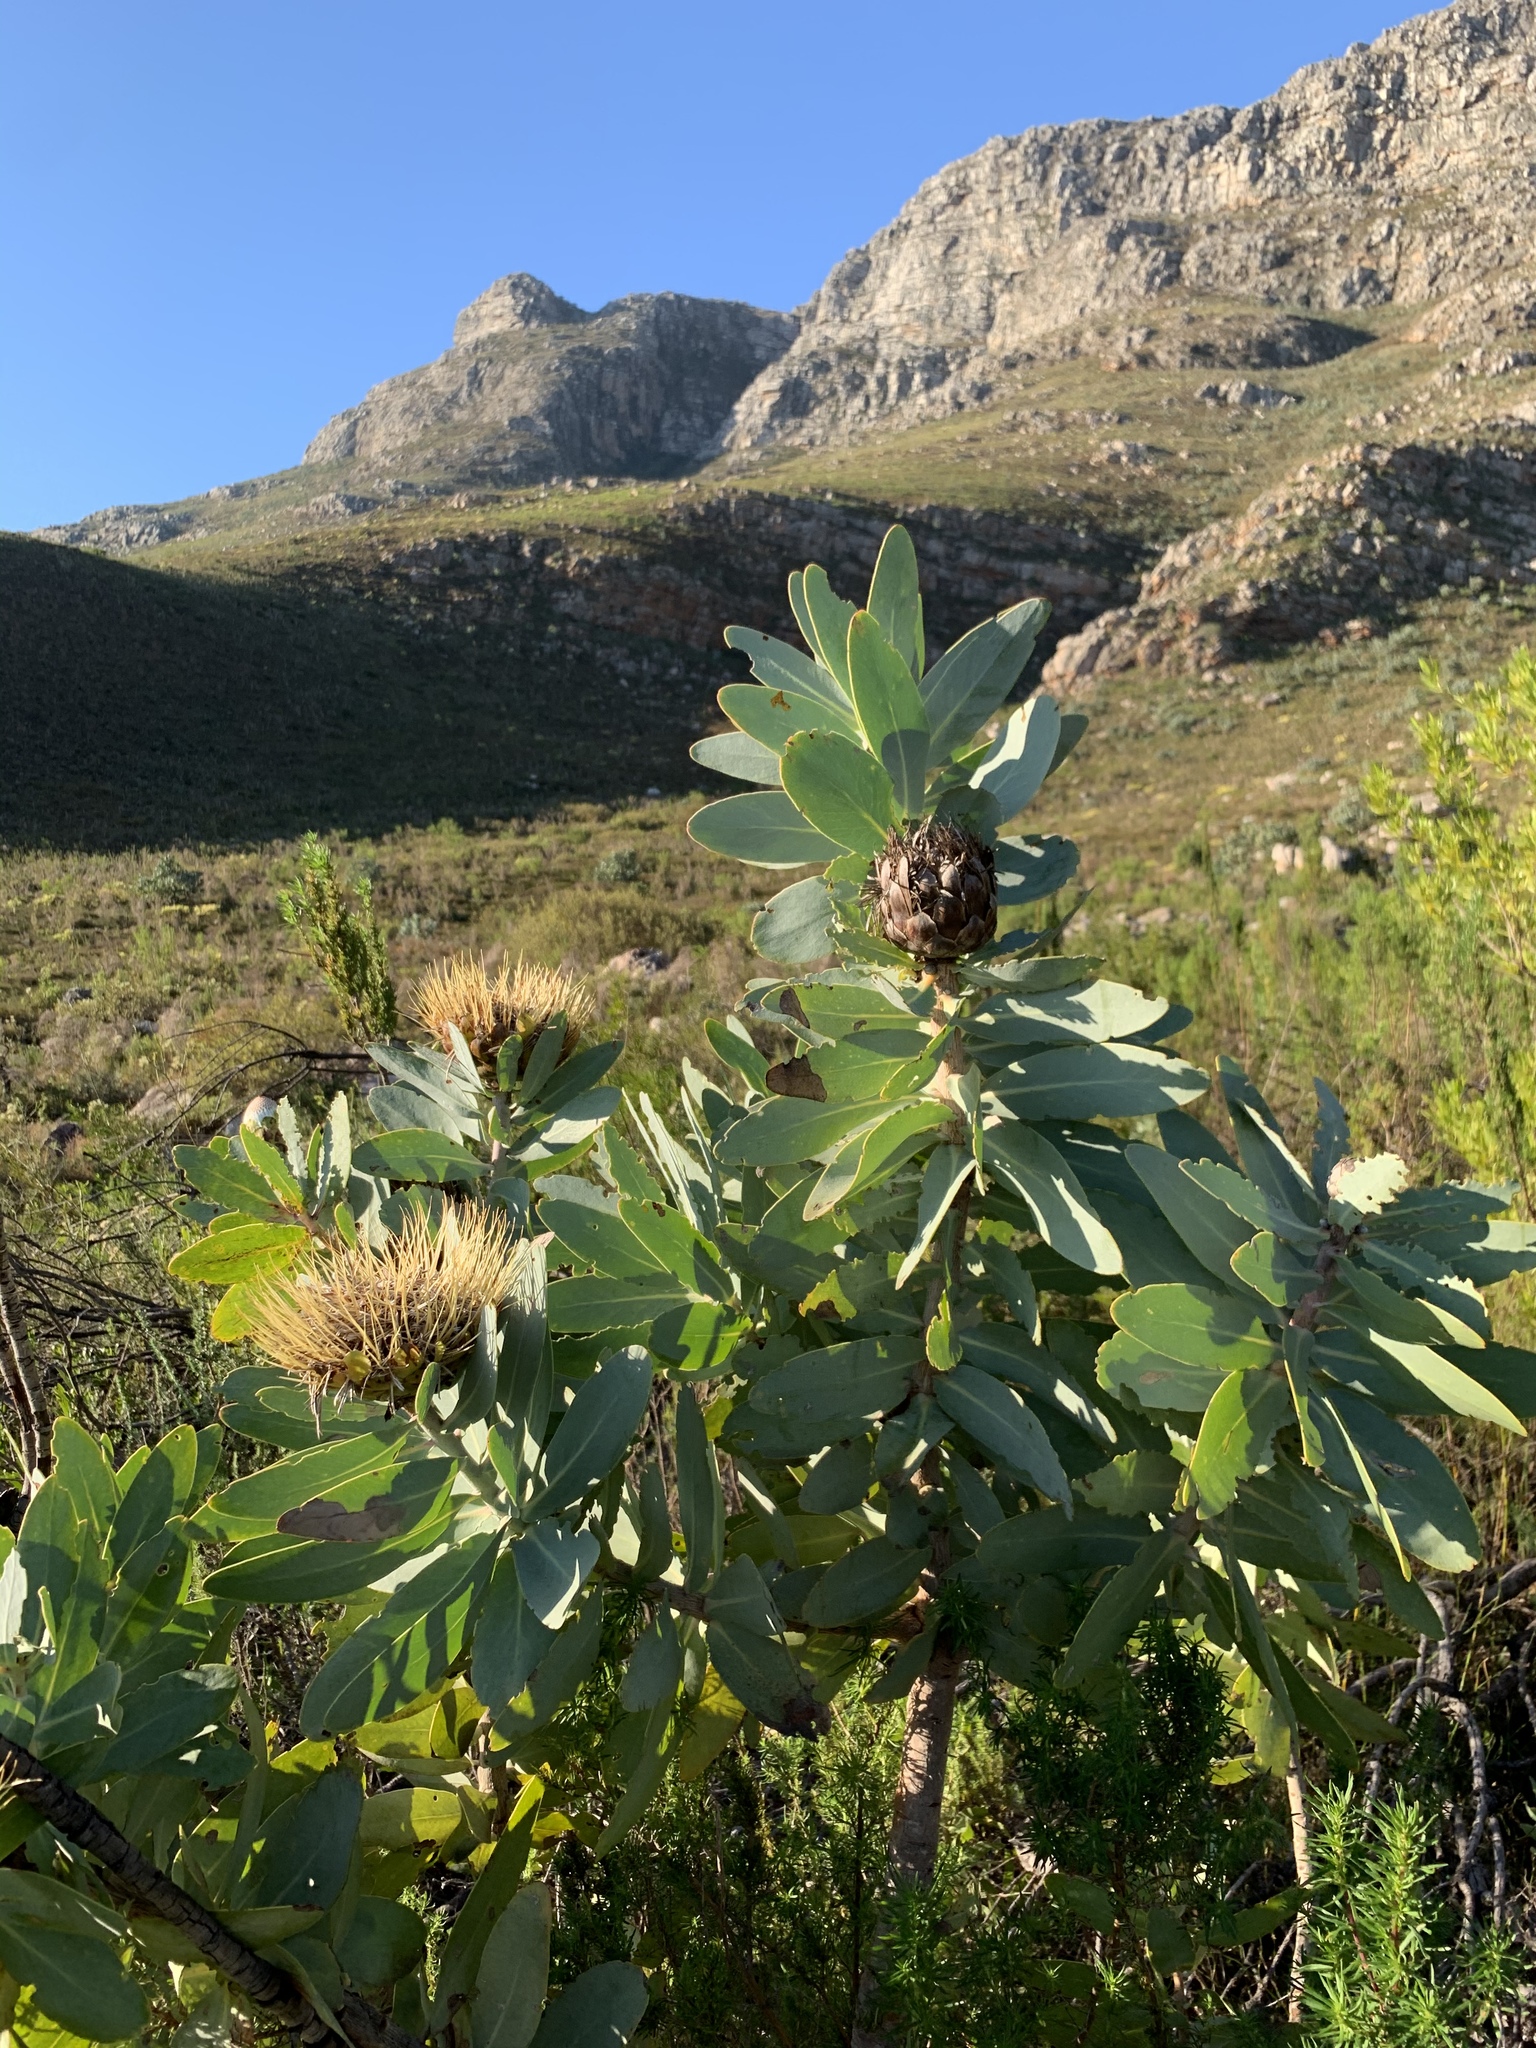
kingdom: Plantae
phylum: Tracheophyta
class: Magnoliopsida
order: Proteales
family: Proteaceae
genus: Protea
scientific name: Protea nitida
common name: Tree protea
